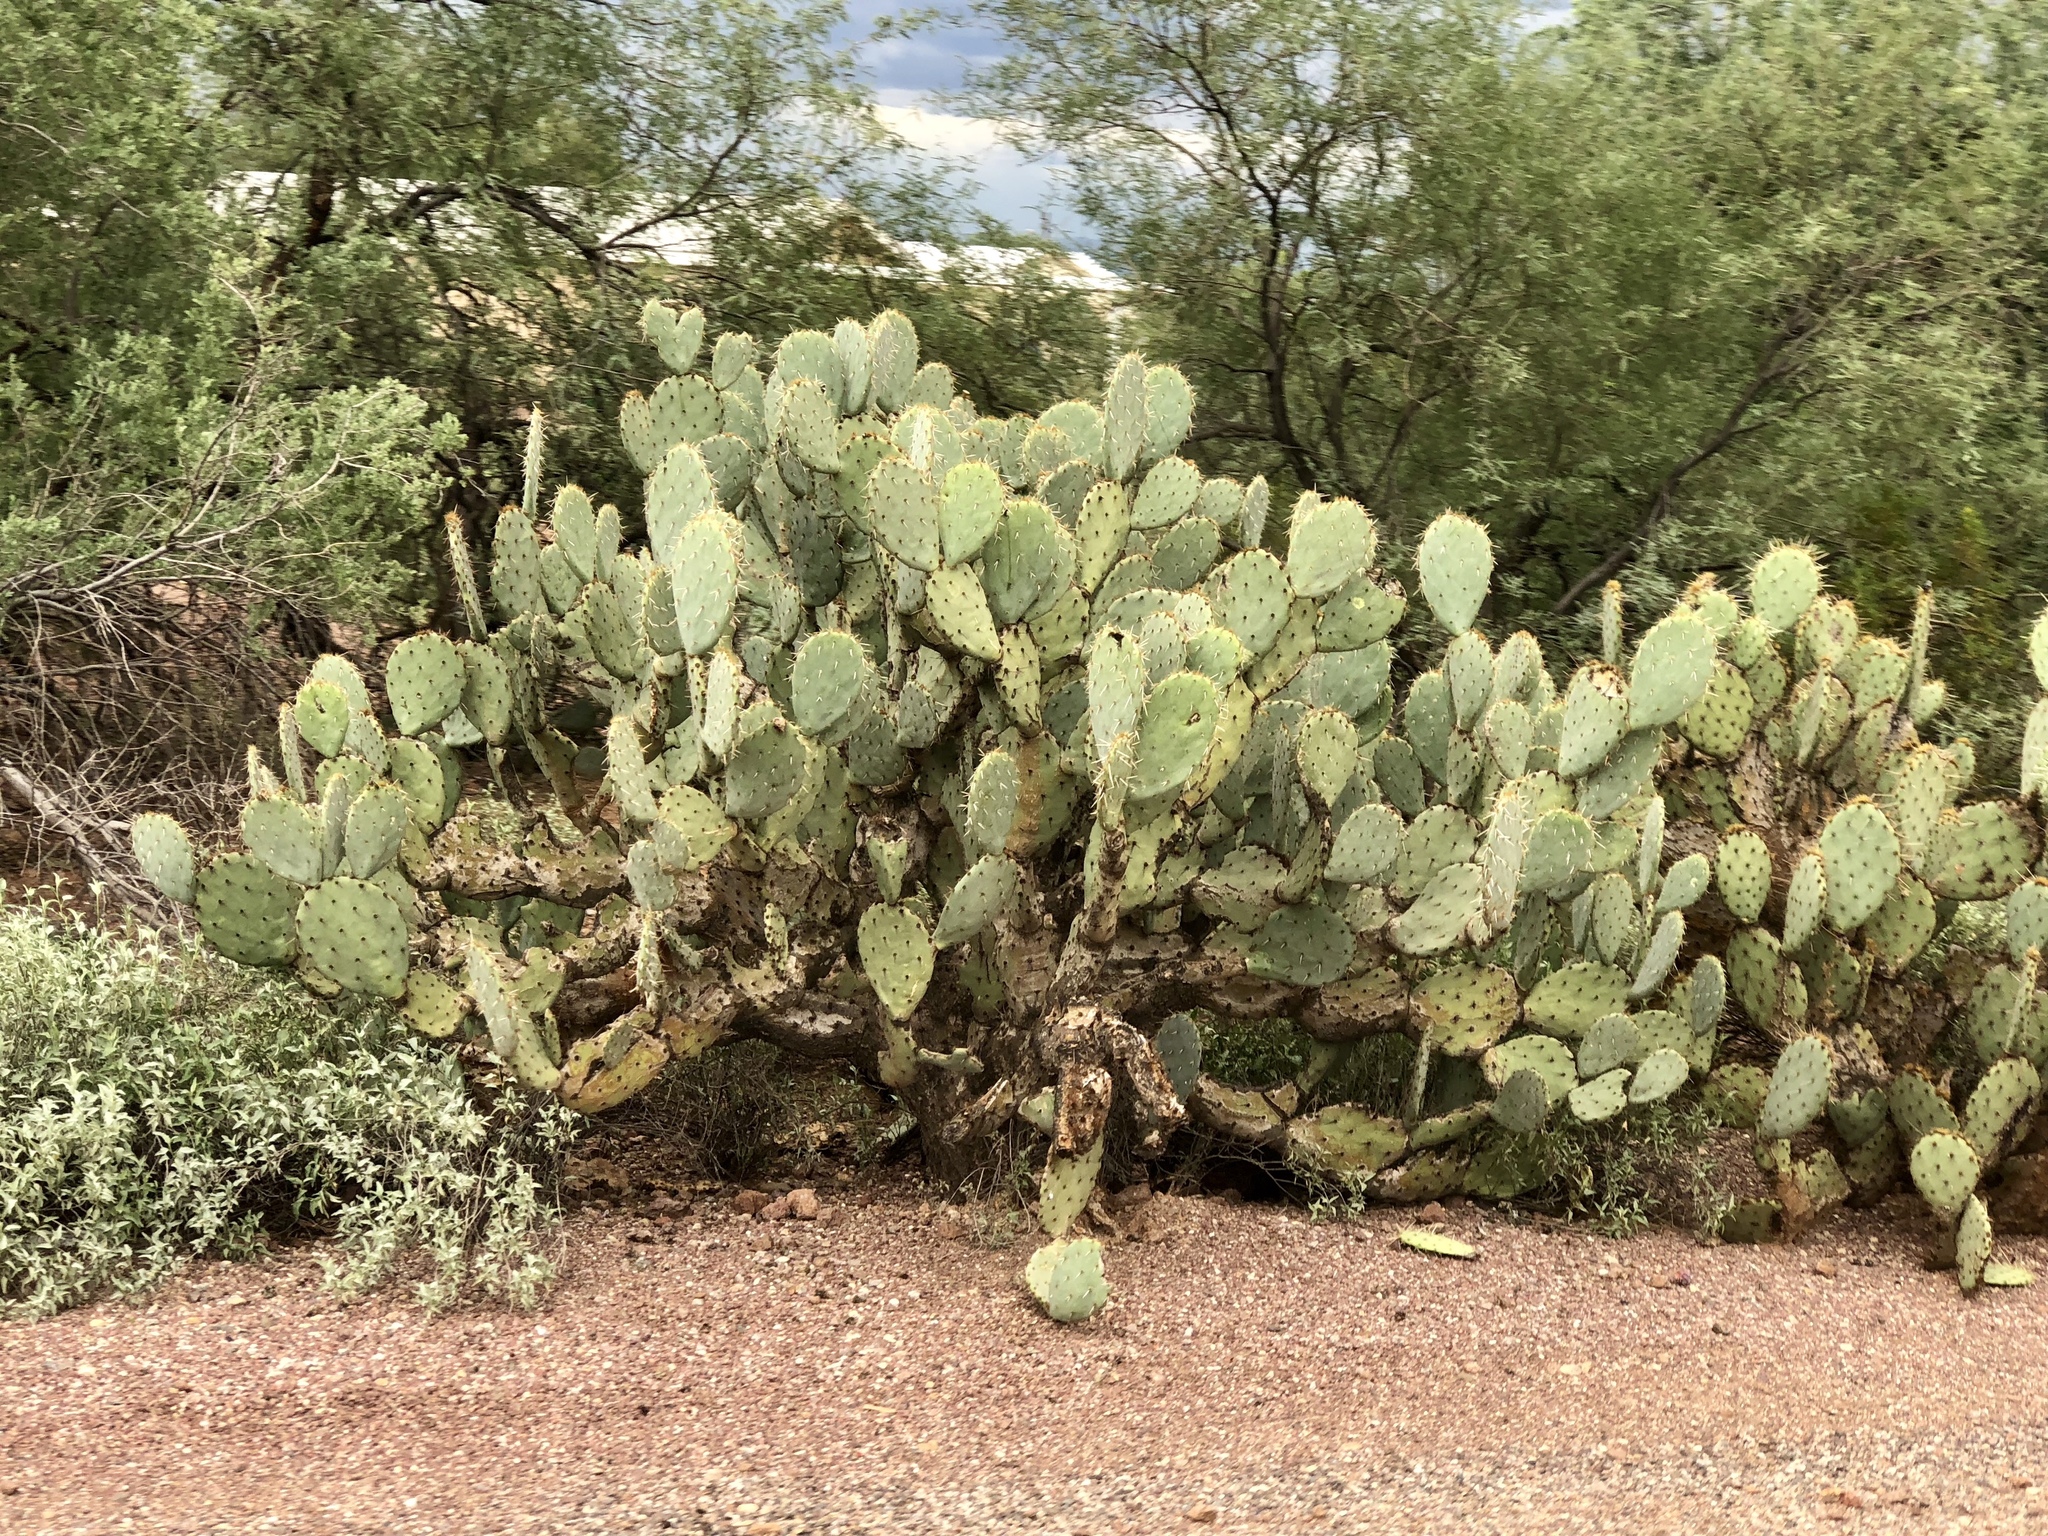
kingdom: Plantae
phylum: Tracheophyta
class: Magnoliopsida
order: Caryophyllales
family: Cactaceae
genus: Opuntia
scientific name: Opuntia engelmannii
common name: Cactus-apple
